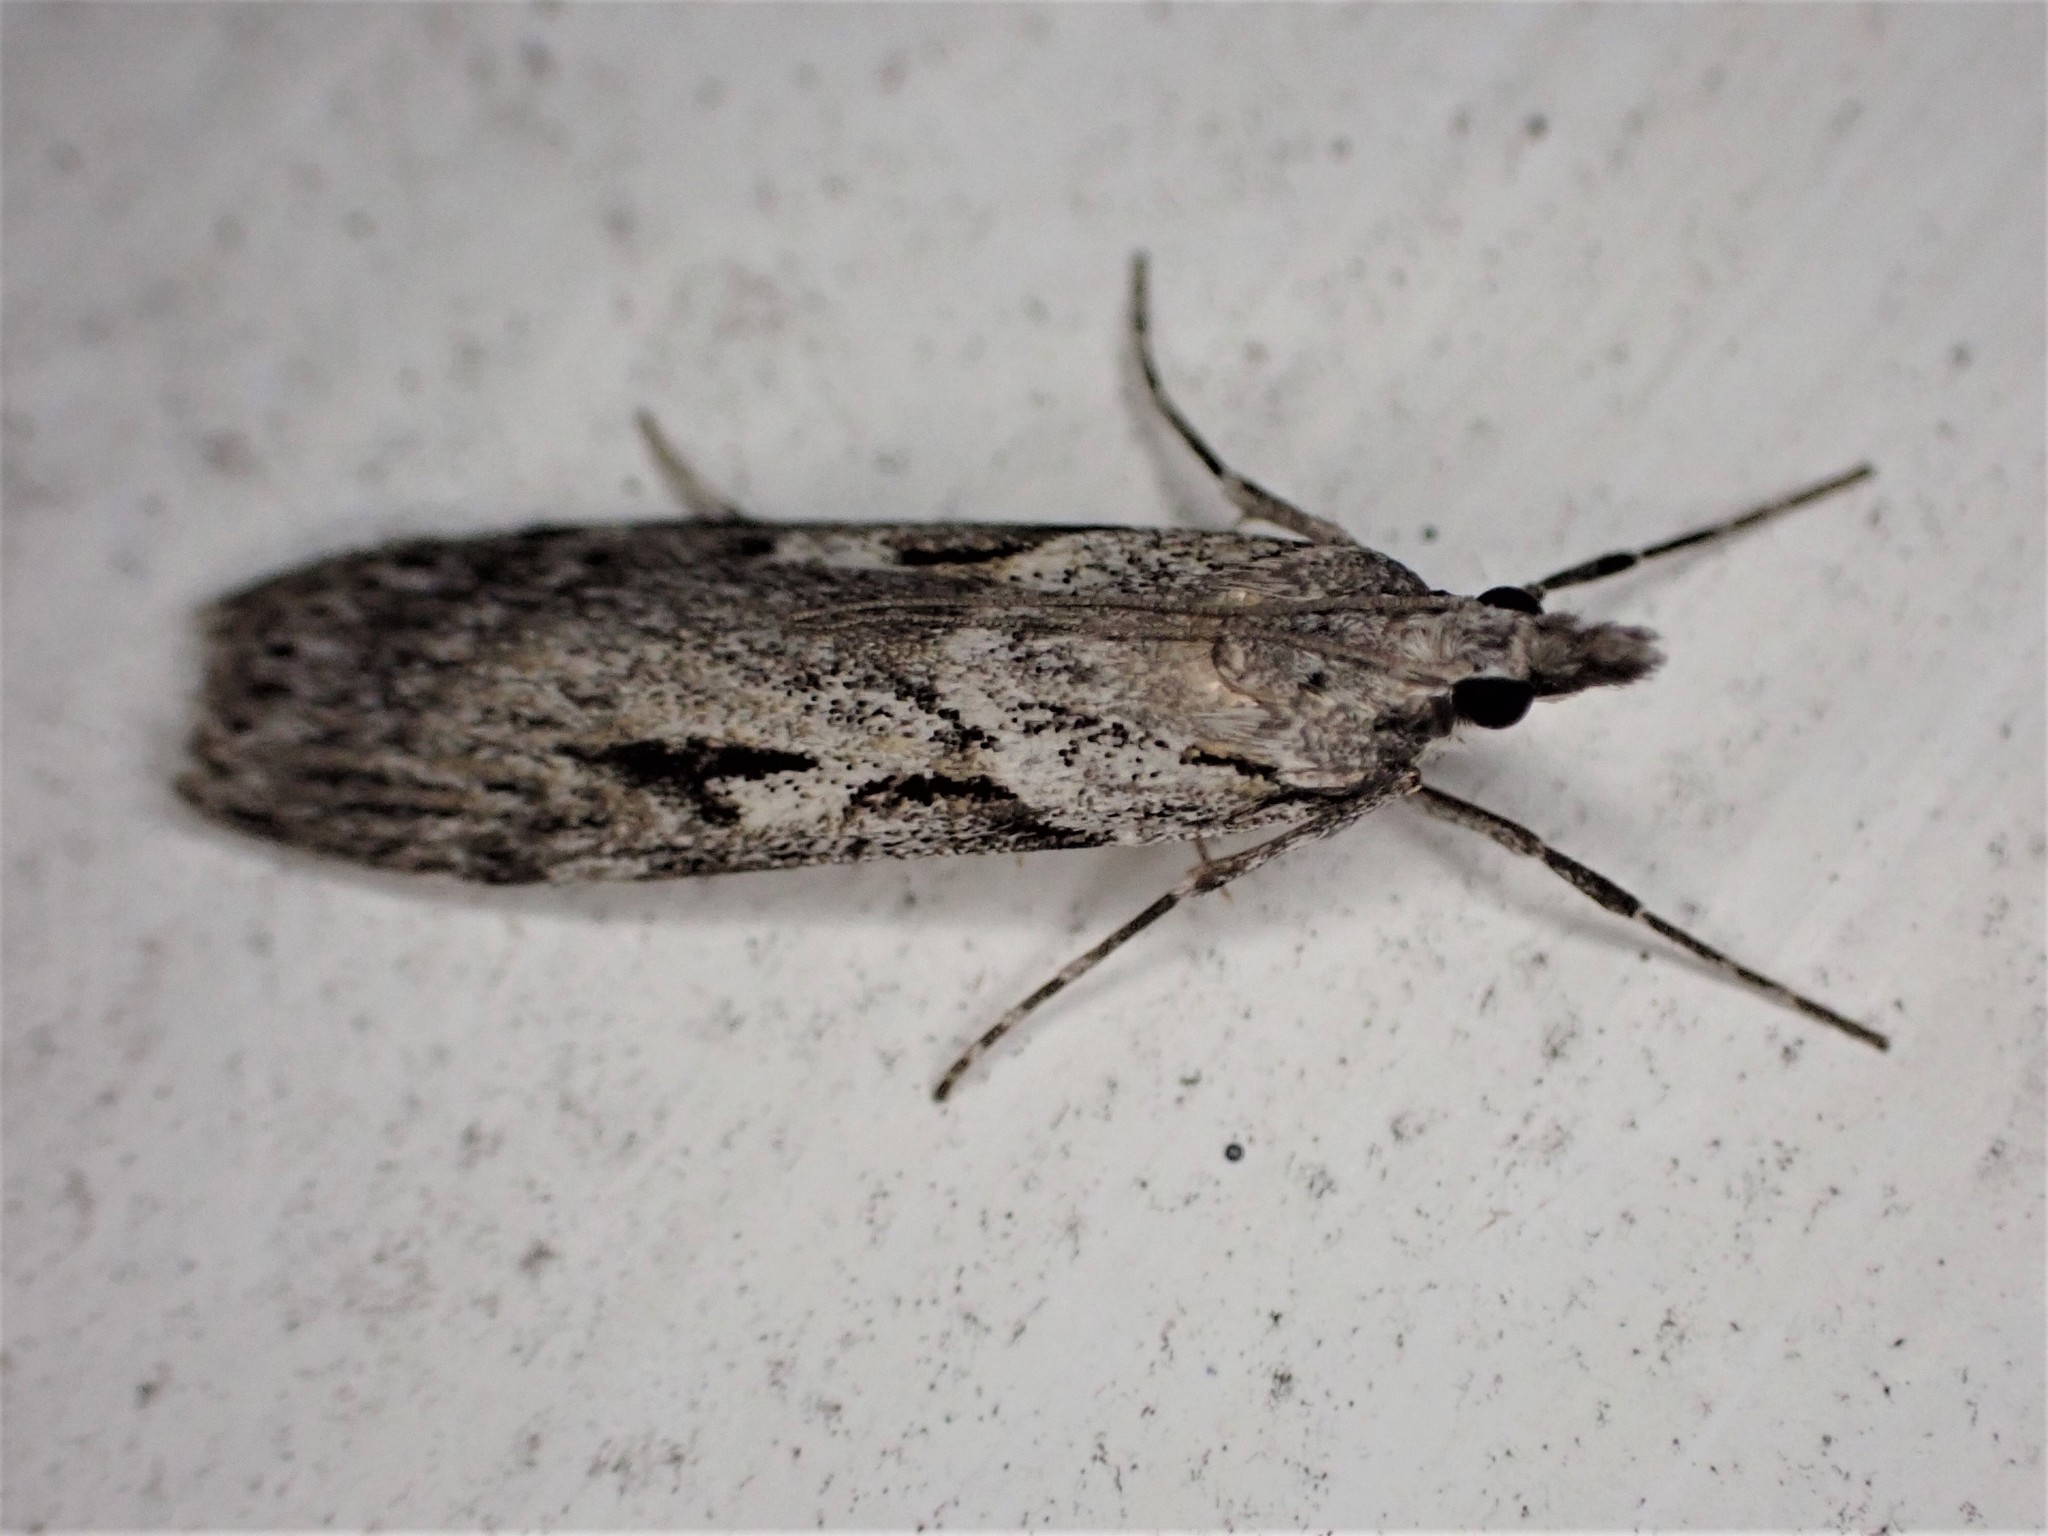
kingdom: Animalia
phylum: Arthropoda
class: Insecta
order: Lepidoptera
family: Crambidae
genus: Scoparia
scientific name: Scoparia halopis
